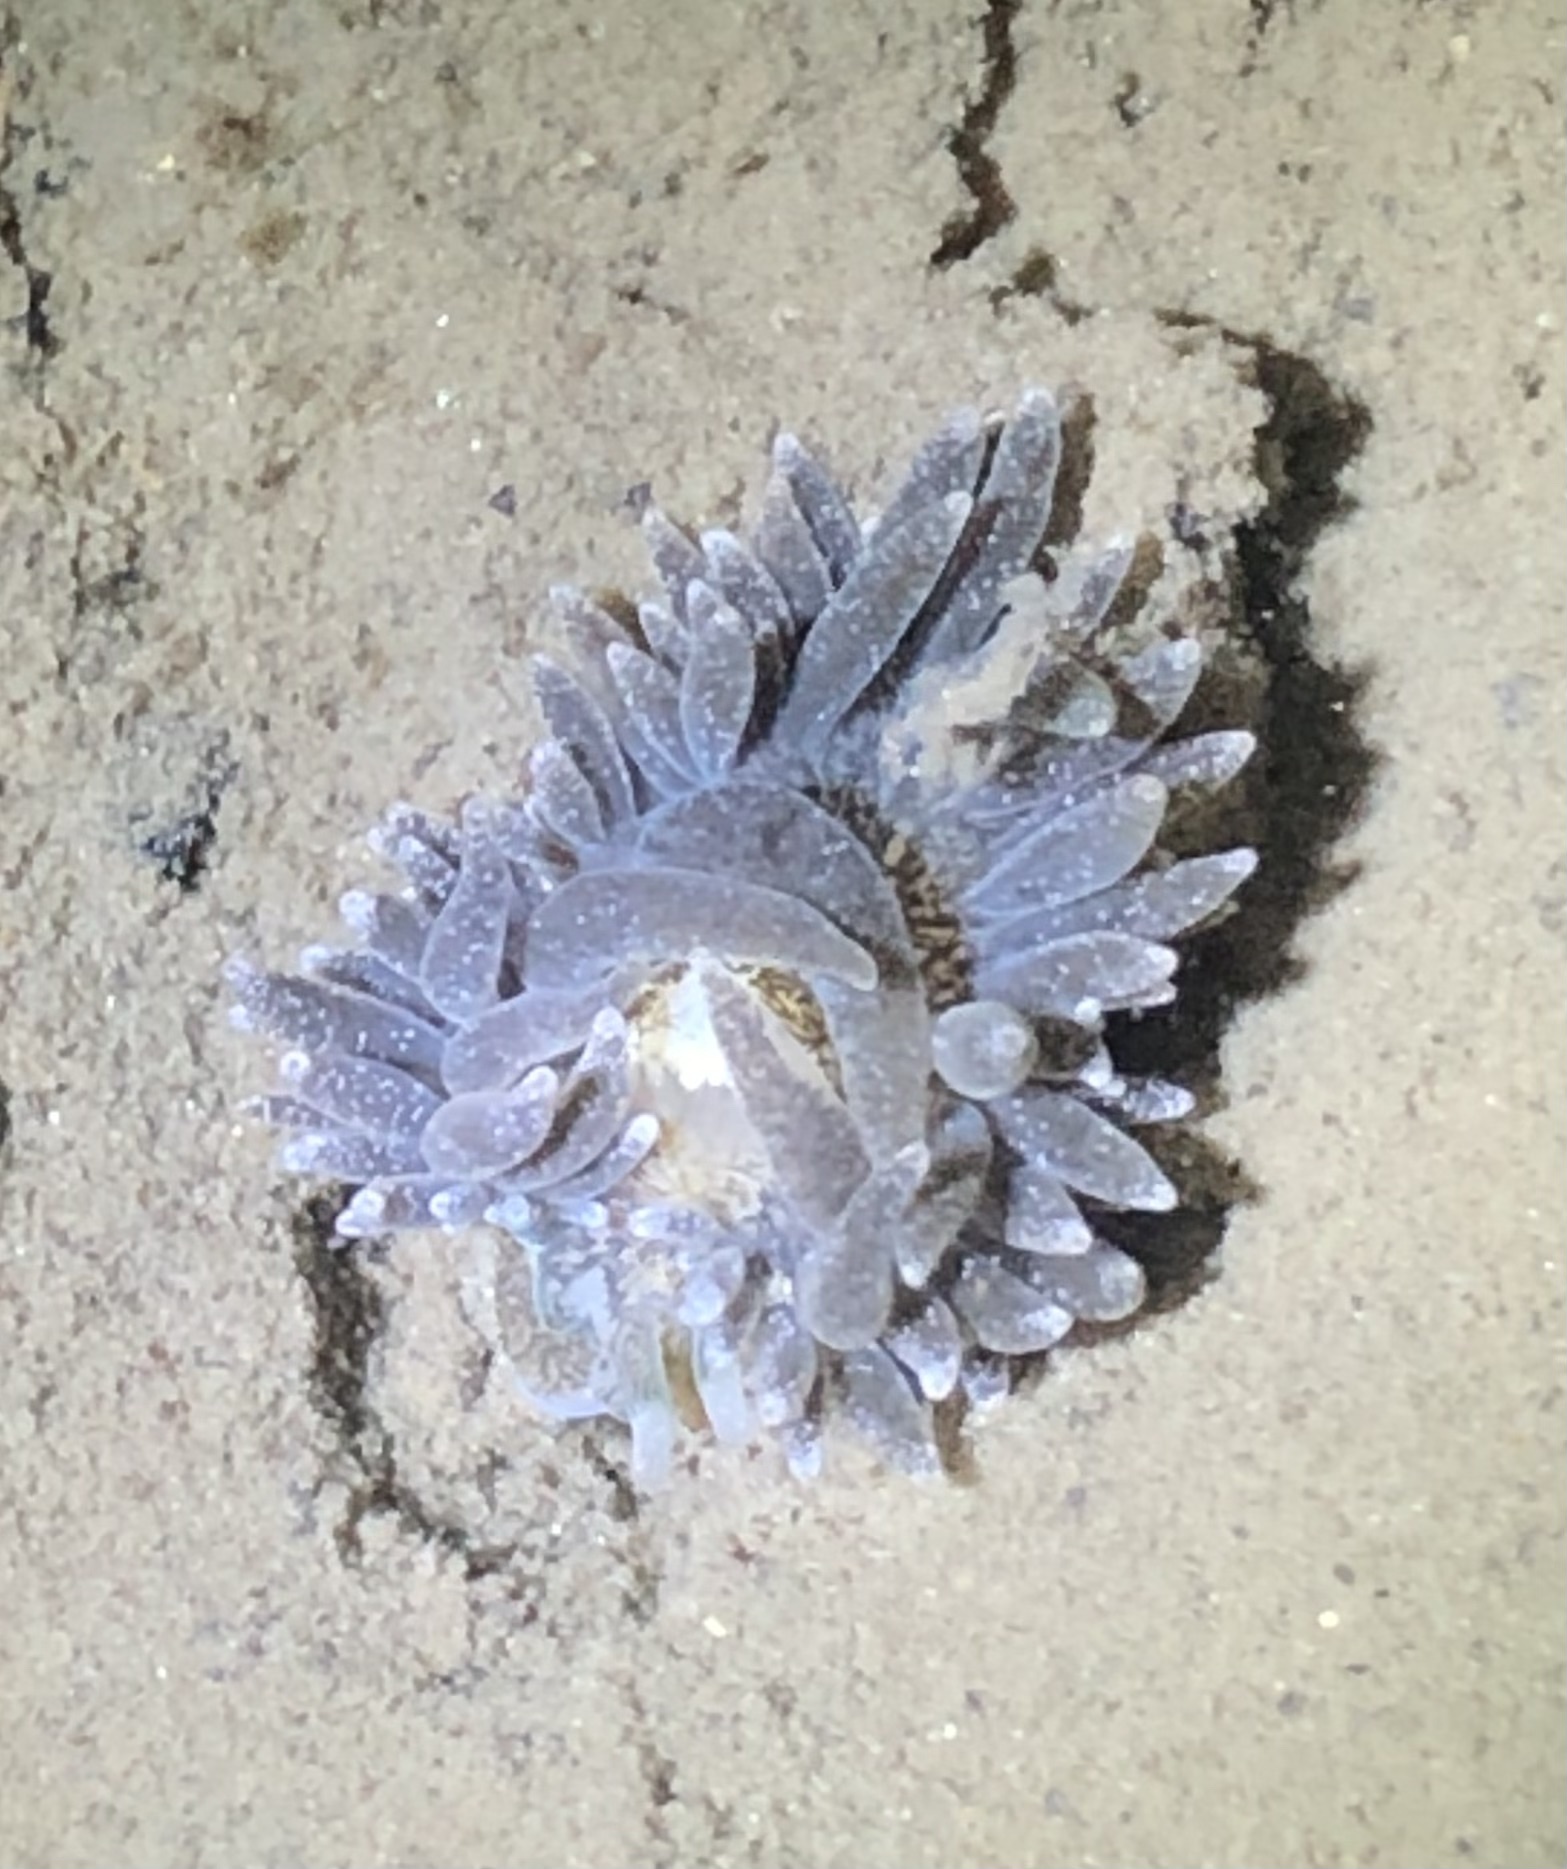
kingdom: Animalia
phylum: Mollusca
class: Gastropoda
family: Limapontiidae
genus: Placida
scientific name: Placida dendritica
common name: Dendritic nudibranch
